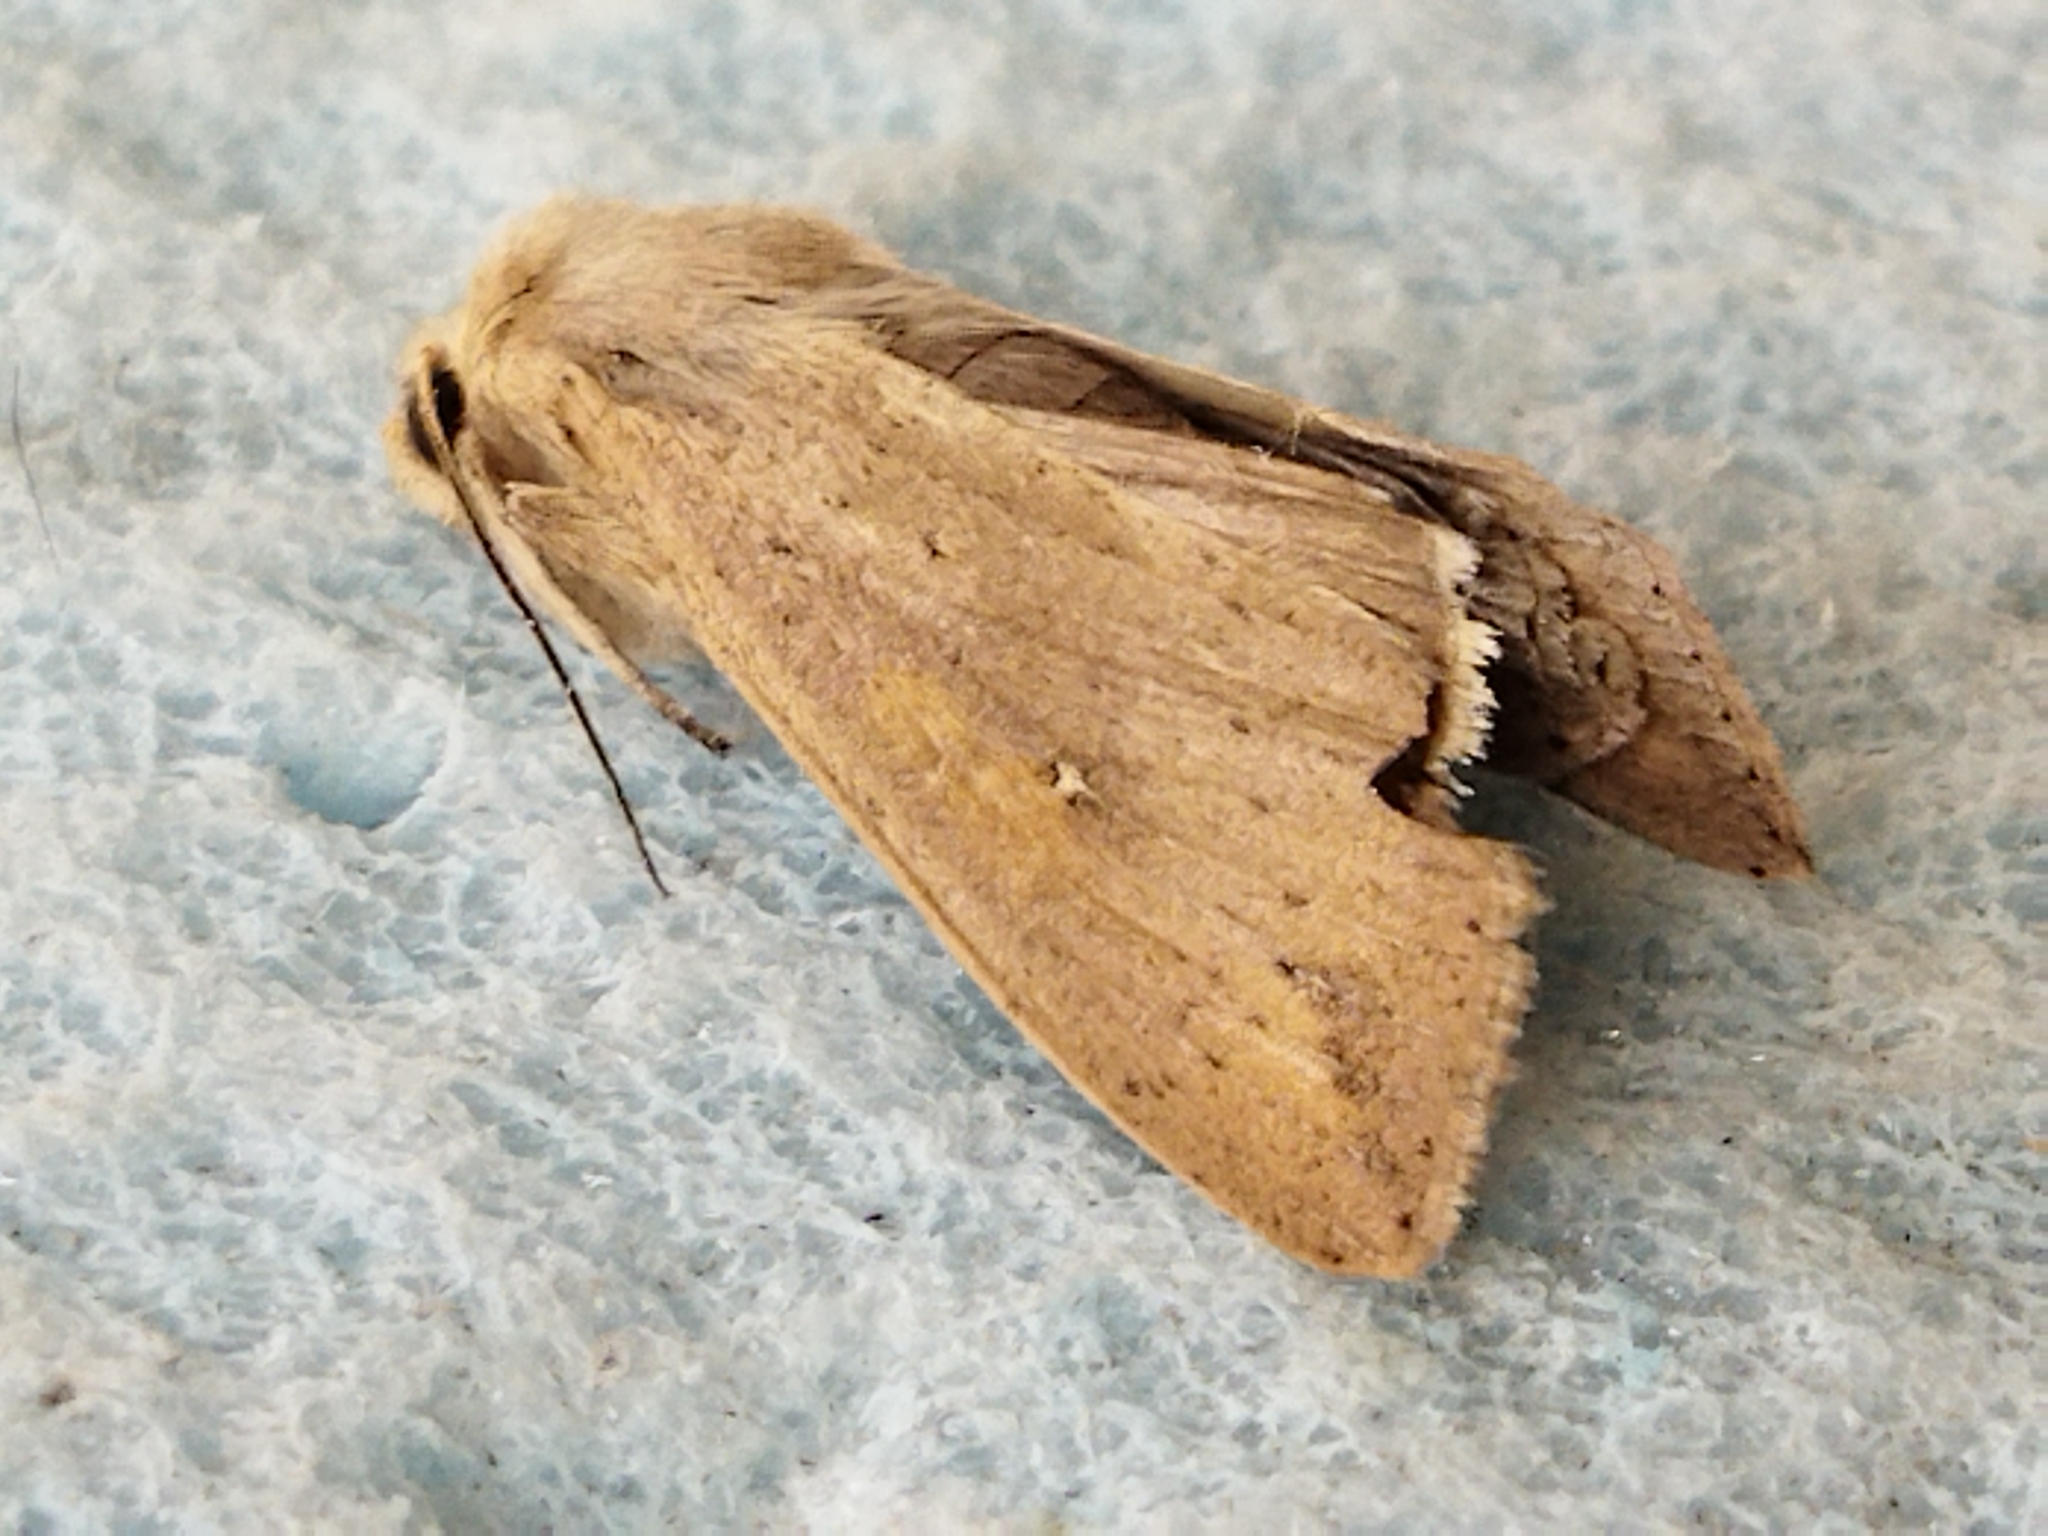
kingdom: Animalia
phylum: Arthropoda
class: Insecta
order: Lepidoptera
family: Noctuidae
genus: Mythimna
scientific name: Mythimna unipuncta
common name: White-speck
